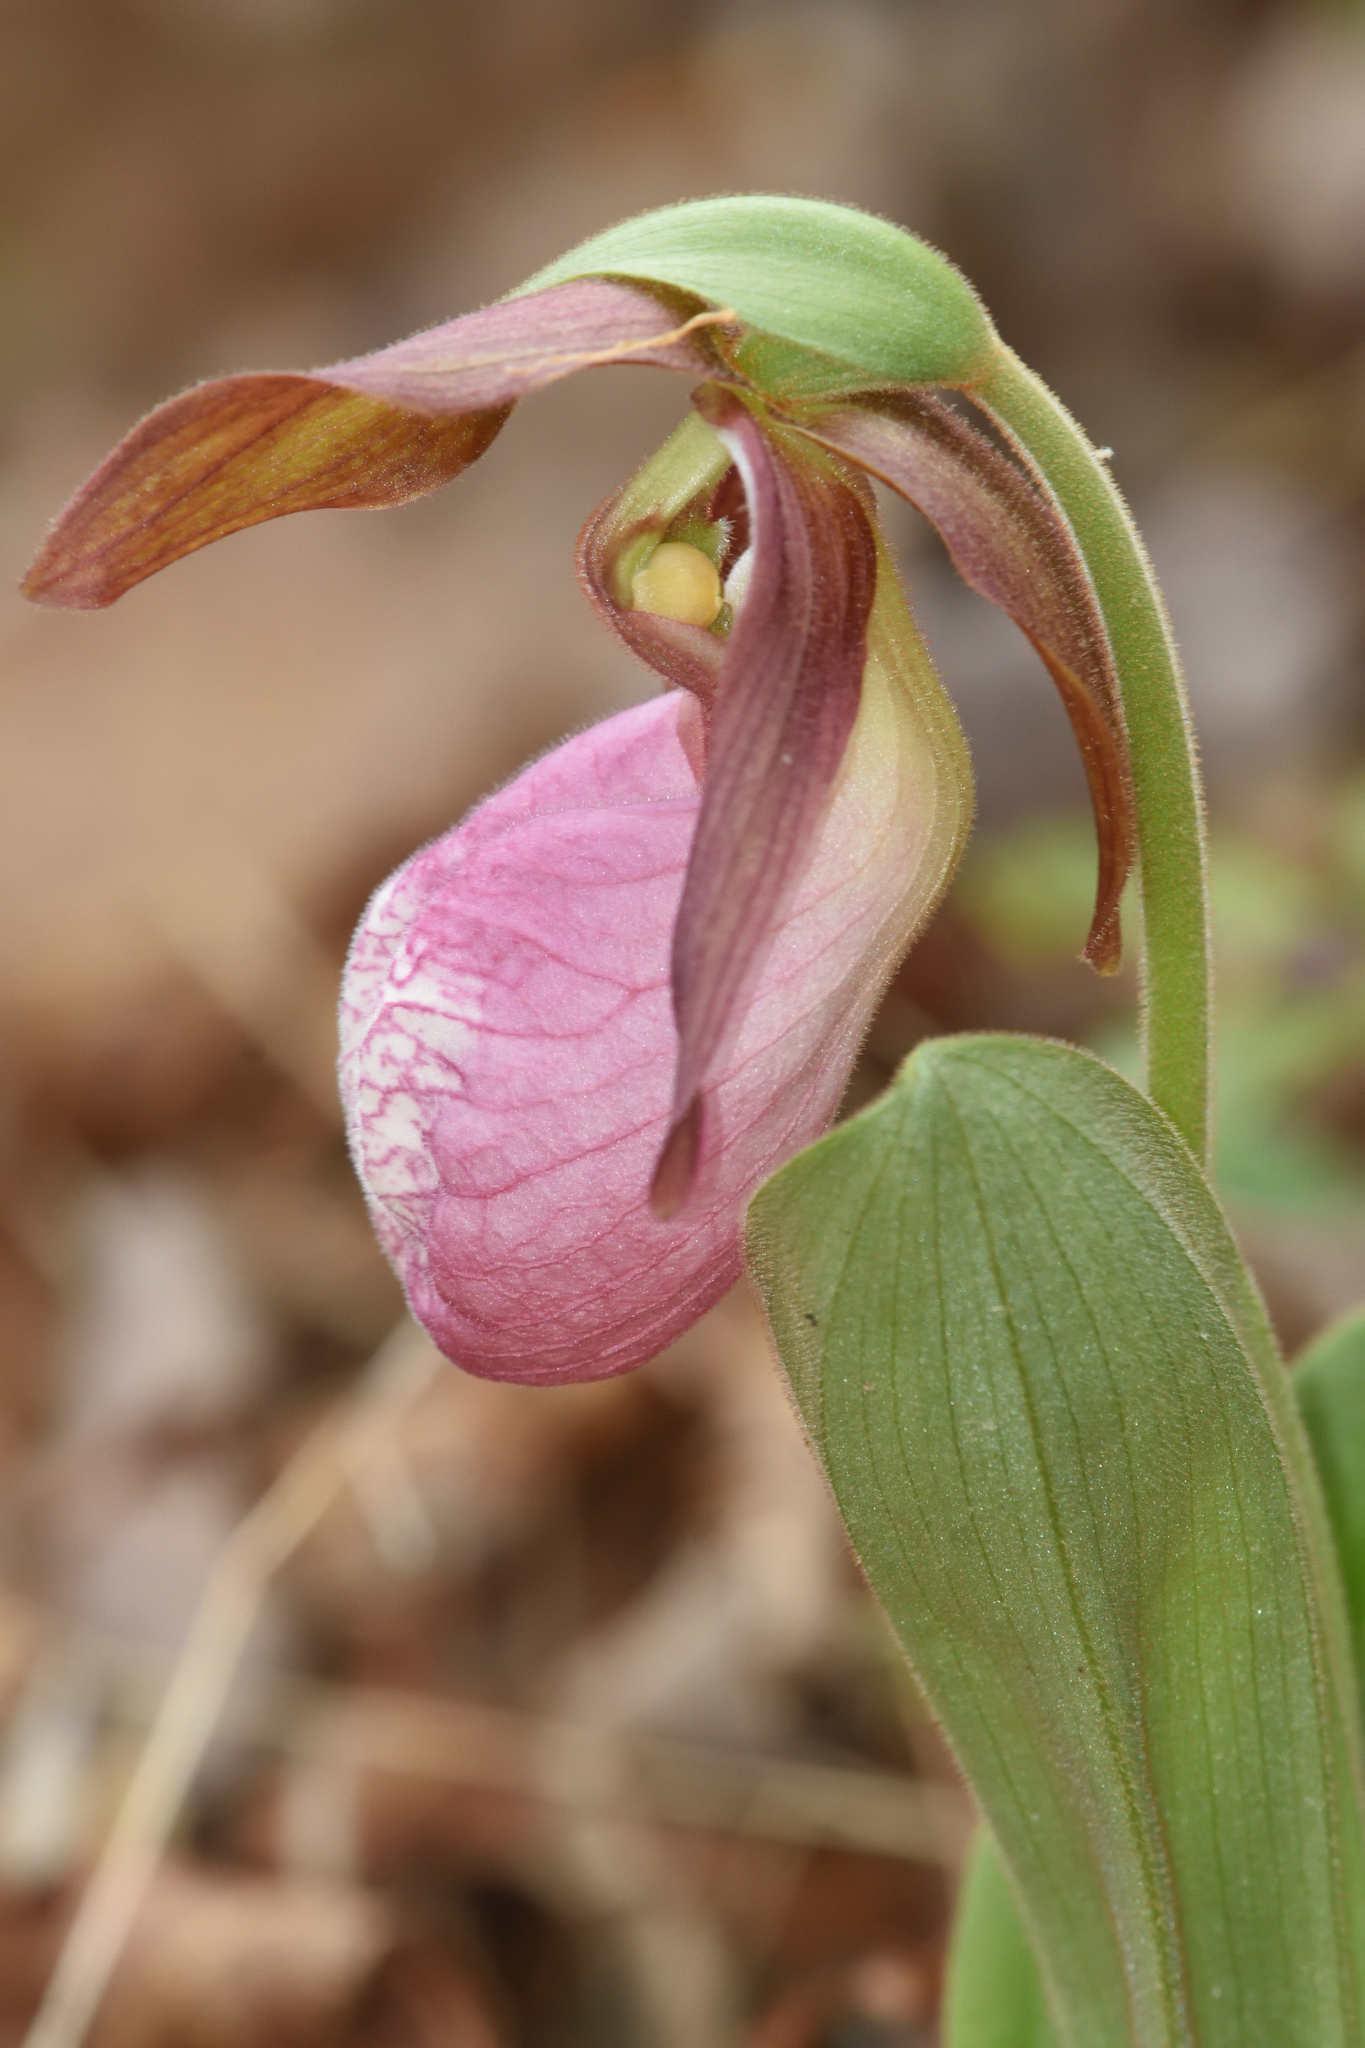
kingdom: Plantae
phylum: Tracheophyta
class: Liliopsida
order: Asparagales
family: Orchidaceae
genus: Cypripedium
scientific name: Cypripedium acaule
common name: Pink lady's-slipper
